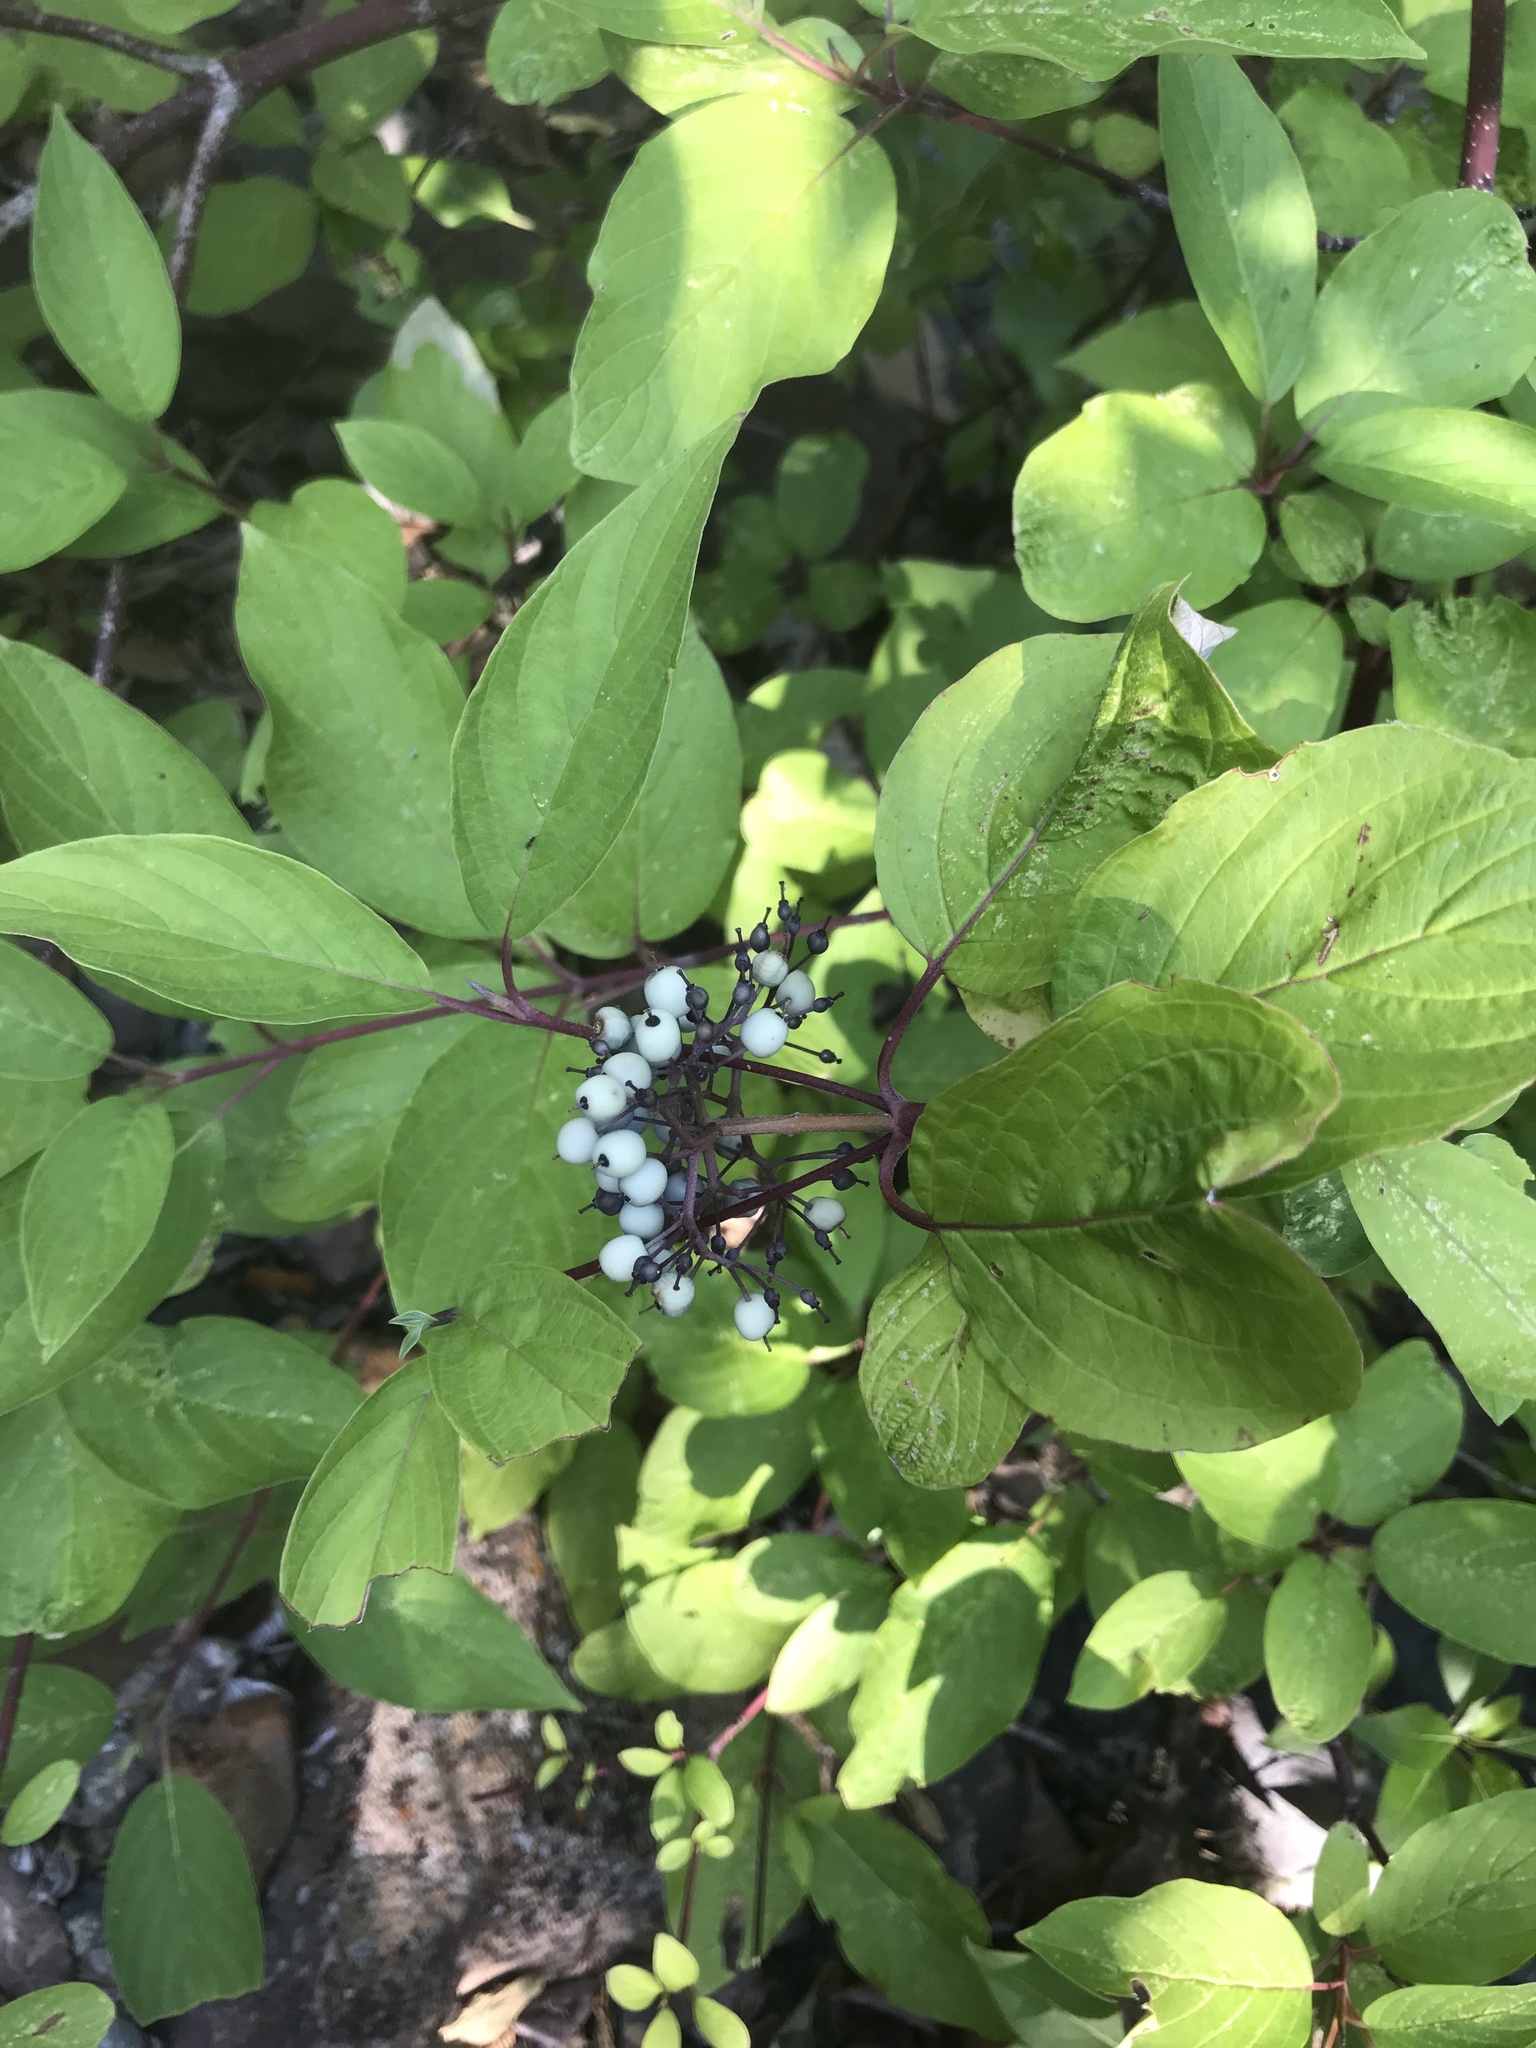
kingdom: Plantae
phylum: Tracheophyta
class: Magnoliopsida
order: Cornales
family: Cornaceae
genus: Cornus
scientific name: Cornus sericea
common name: Red-osier dogwood
